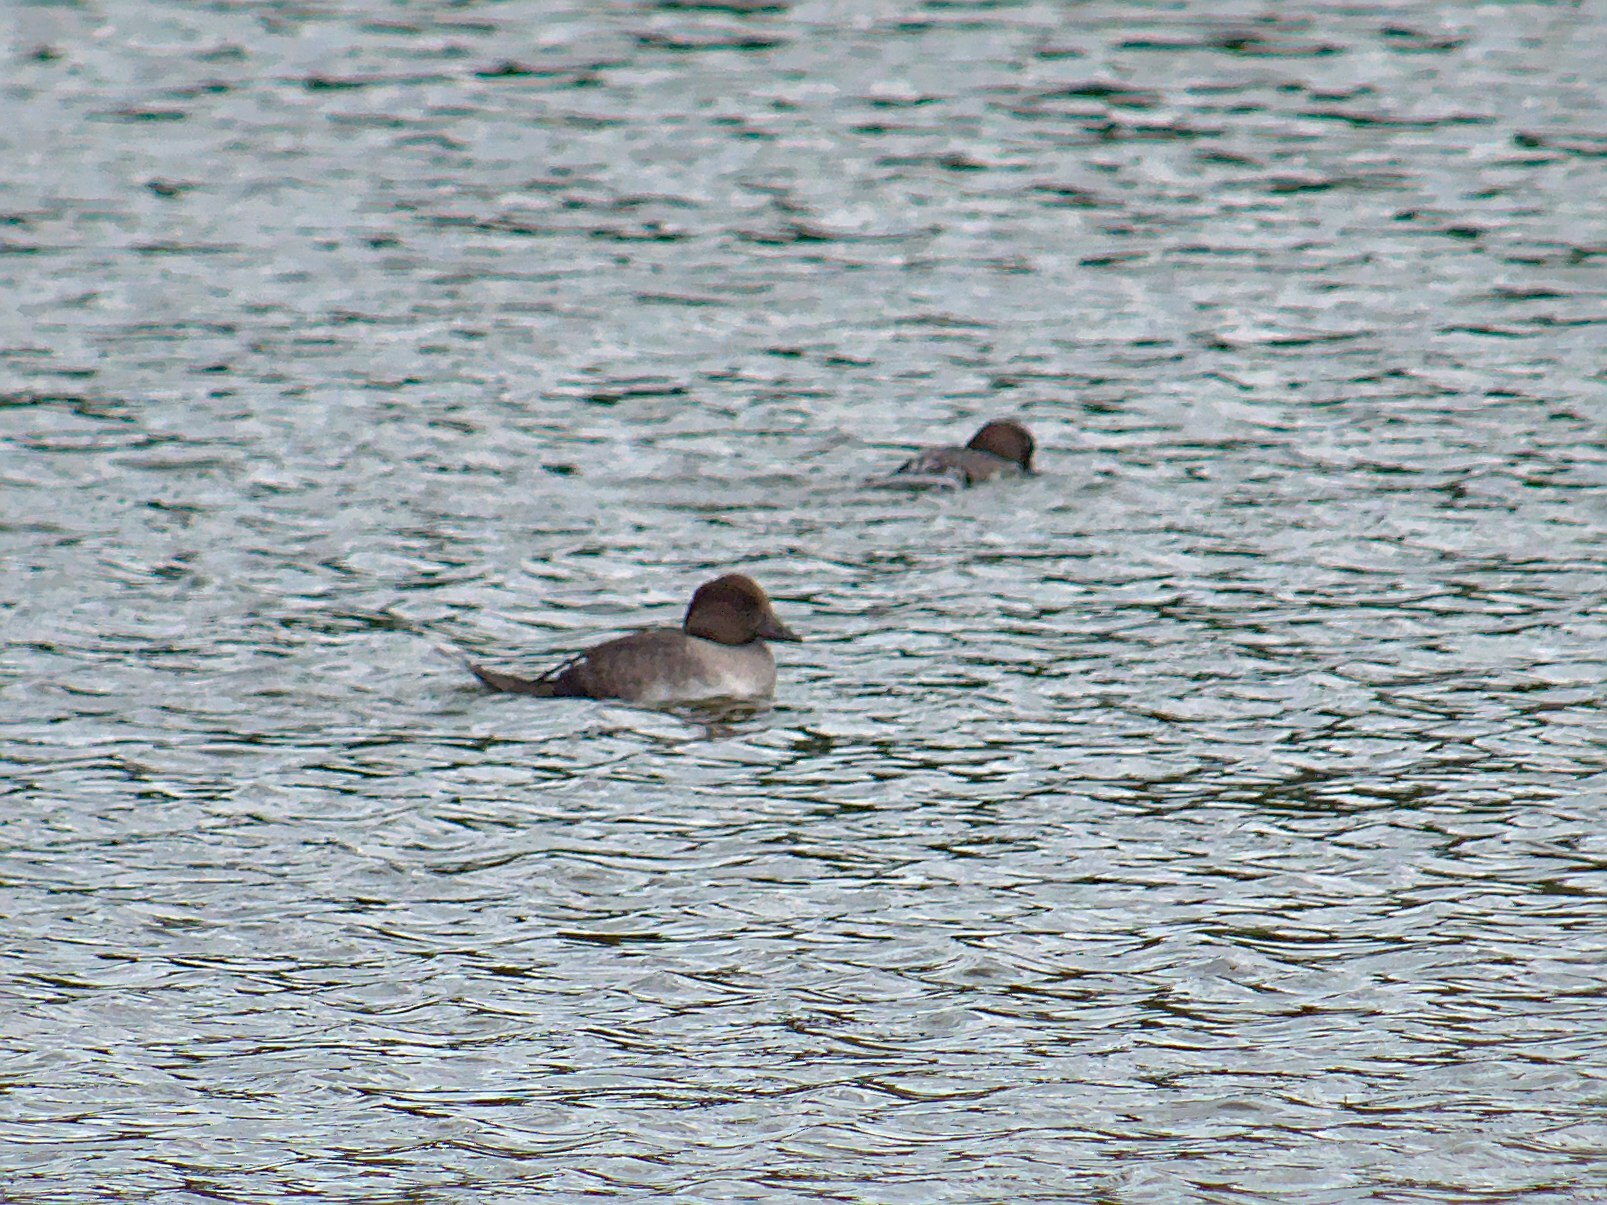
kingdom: Animalia
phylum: Chordata
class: Aves
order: Anseriformes
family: Anatidae
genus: Bucephala
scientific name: Bucephala clangula
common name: Common goldeneye
